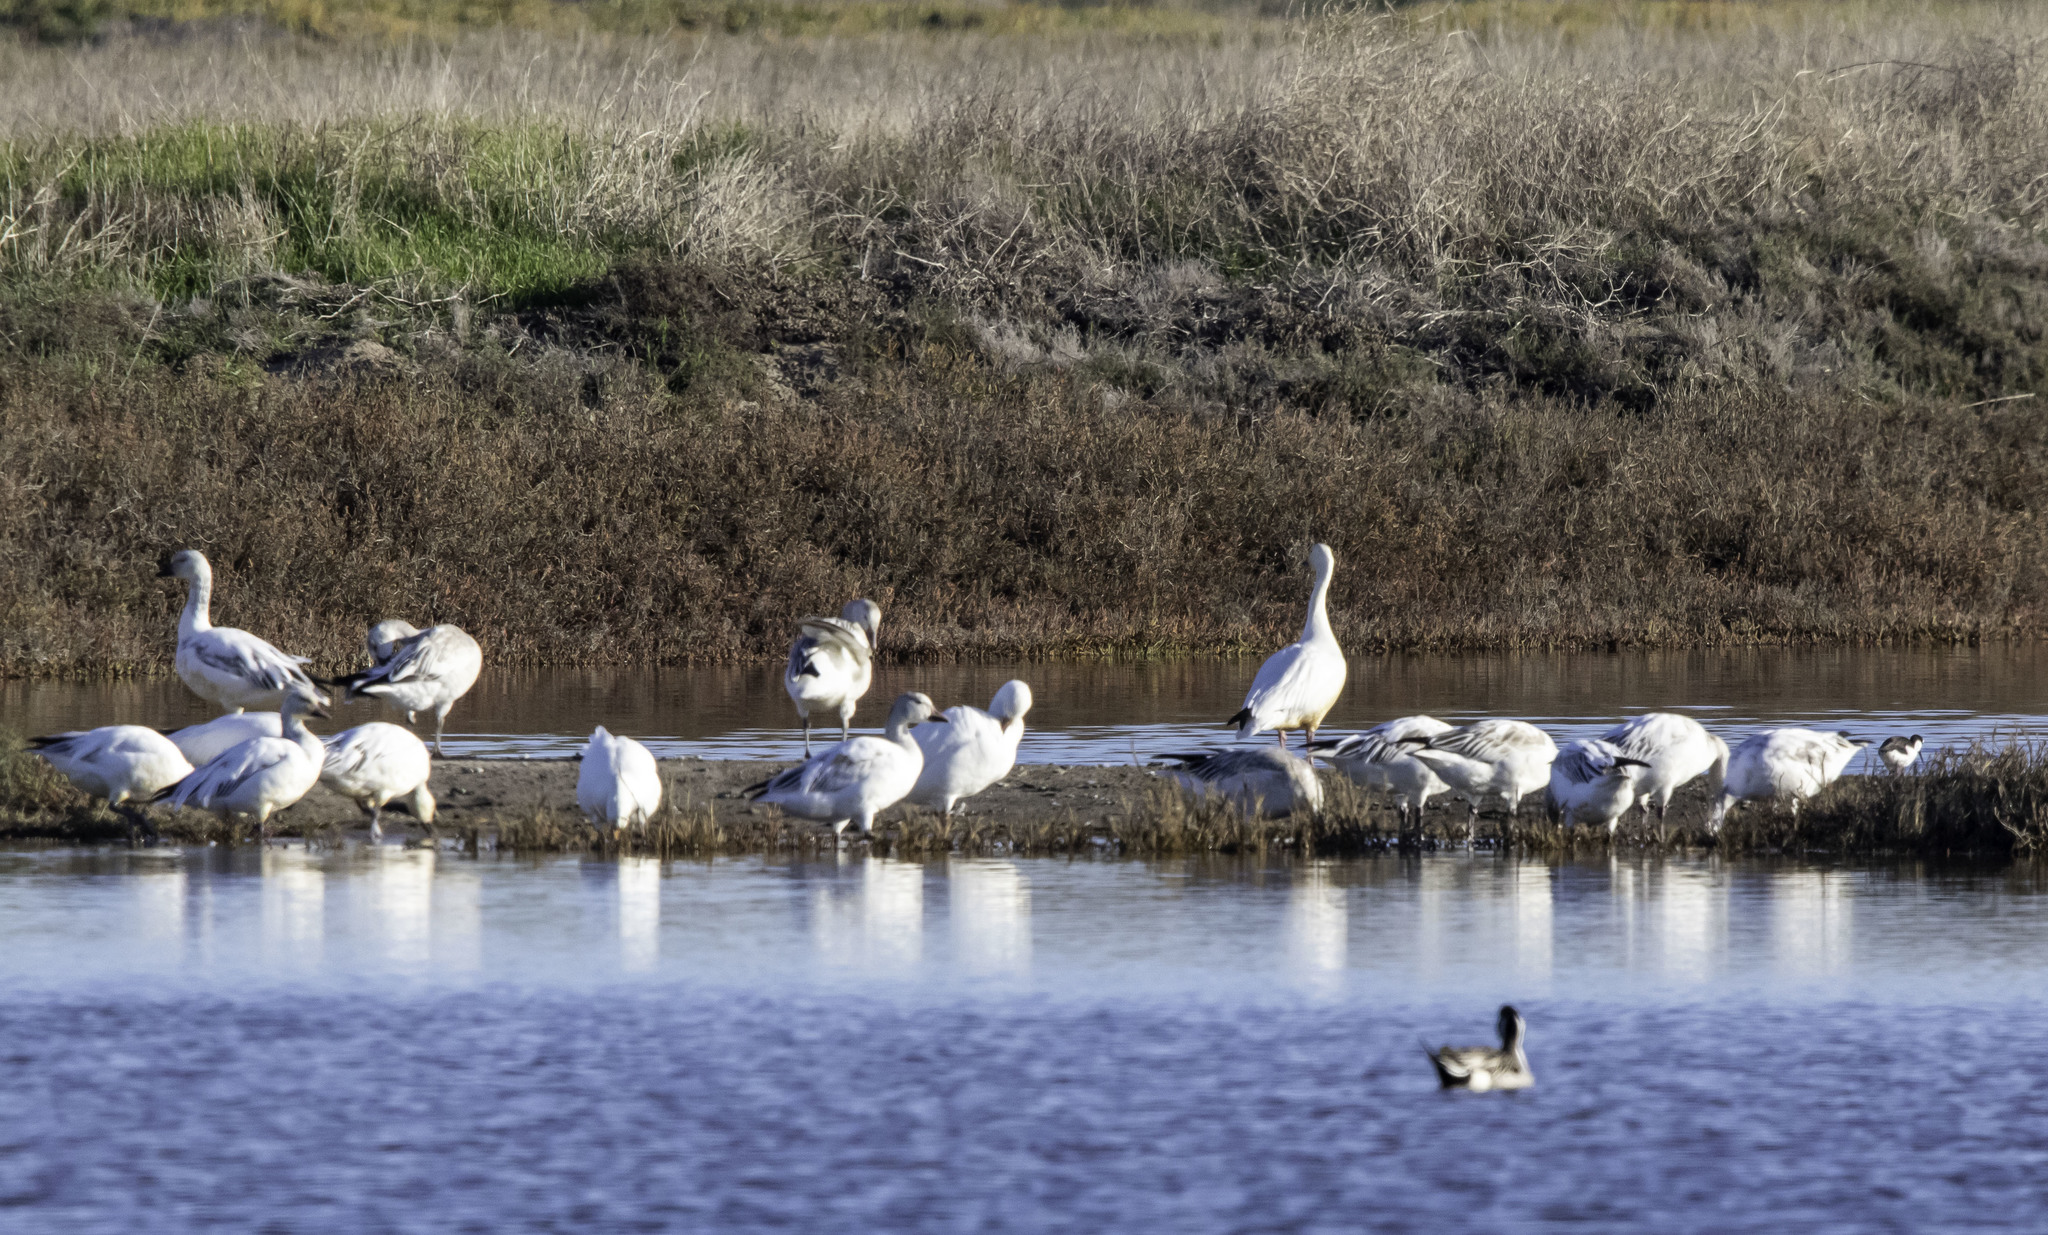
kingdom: Animalia
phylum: Chordata
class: Aves
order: Anseriformes
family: Anatidae
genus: Anser
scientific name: Anser caerulescens
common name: Snow goose
